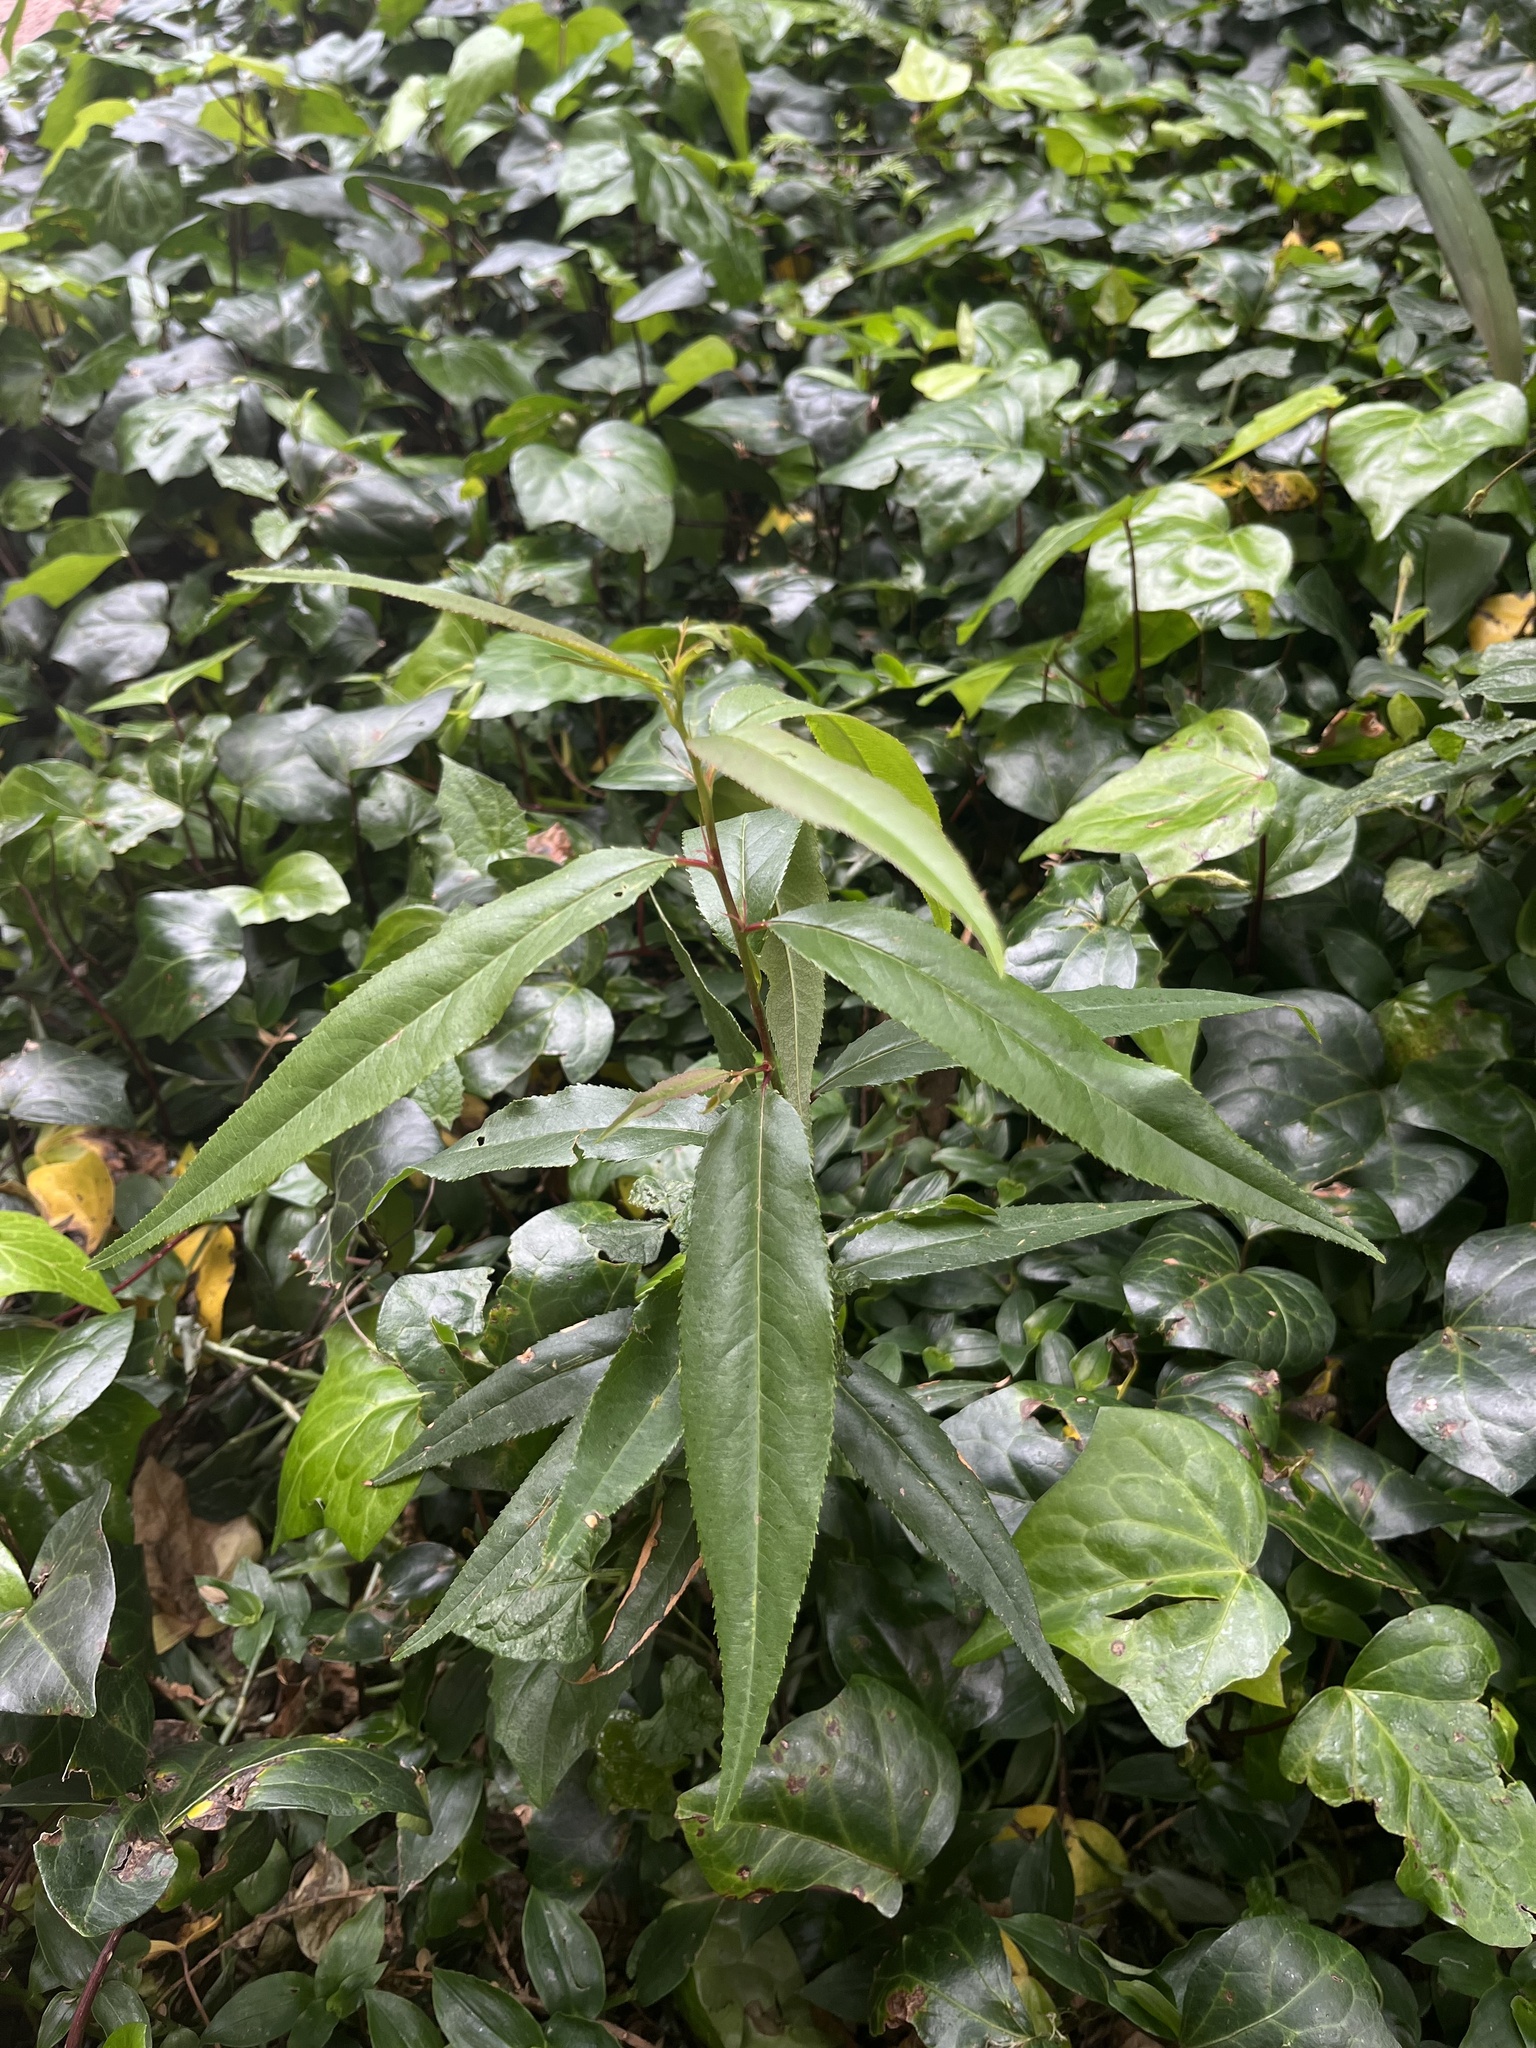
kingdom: Plantae
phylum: Tracheophyta
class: Magnoliopsida
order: Rosales
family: Rosaceae
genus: Prunus
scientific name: Prunus serotina
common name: Black cherry
